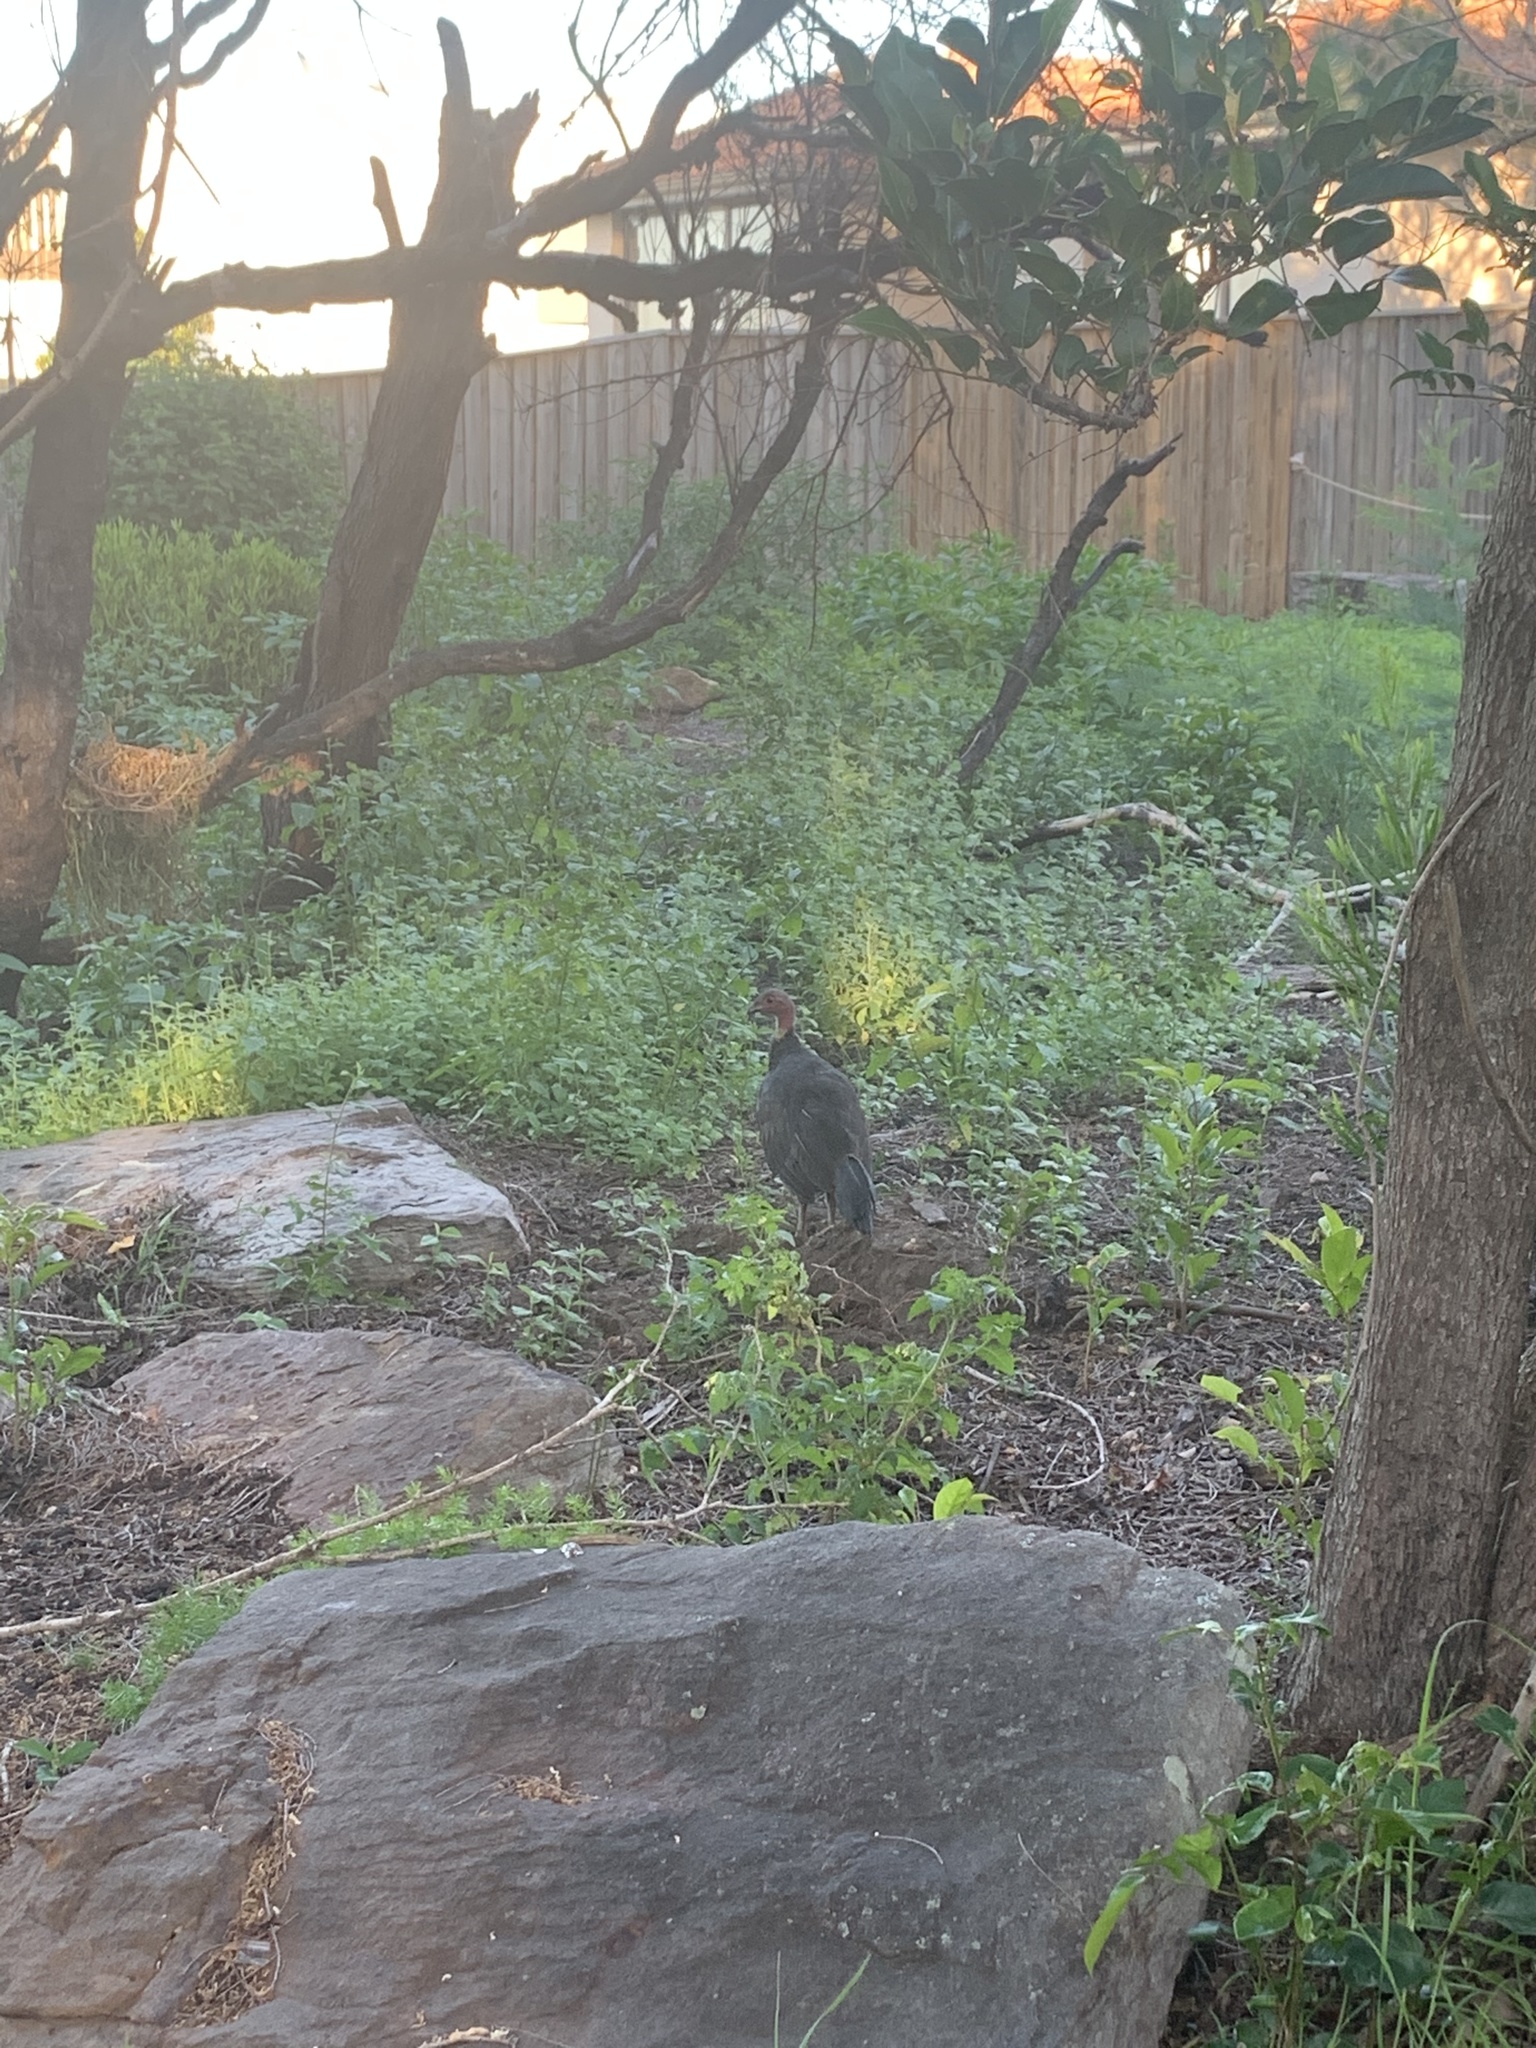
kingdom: Animalia
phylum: Chordata
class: Aves
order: Galliformes
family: Megapodiidae
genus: Alectura
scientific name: Alectura lathami
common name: Australian brushturkey
